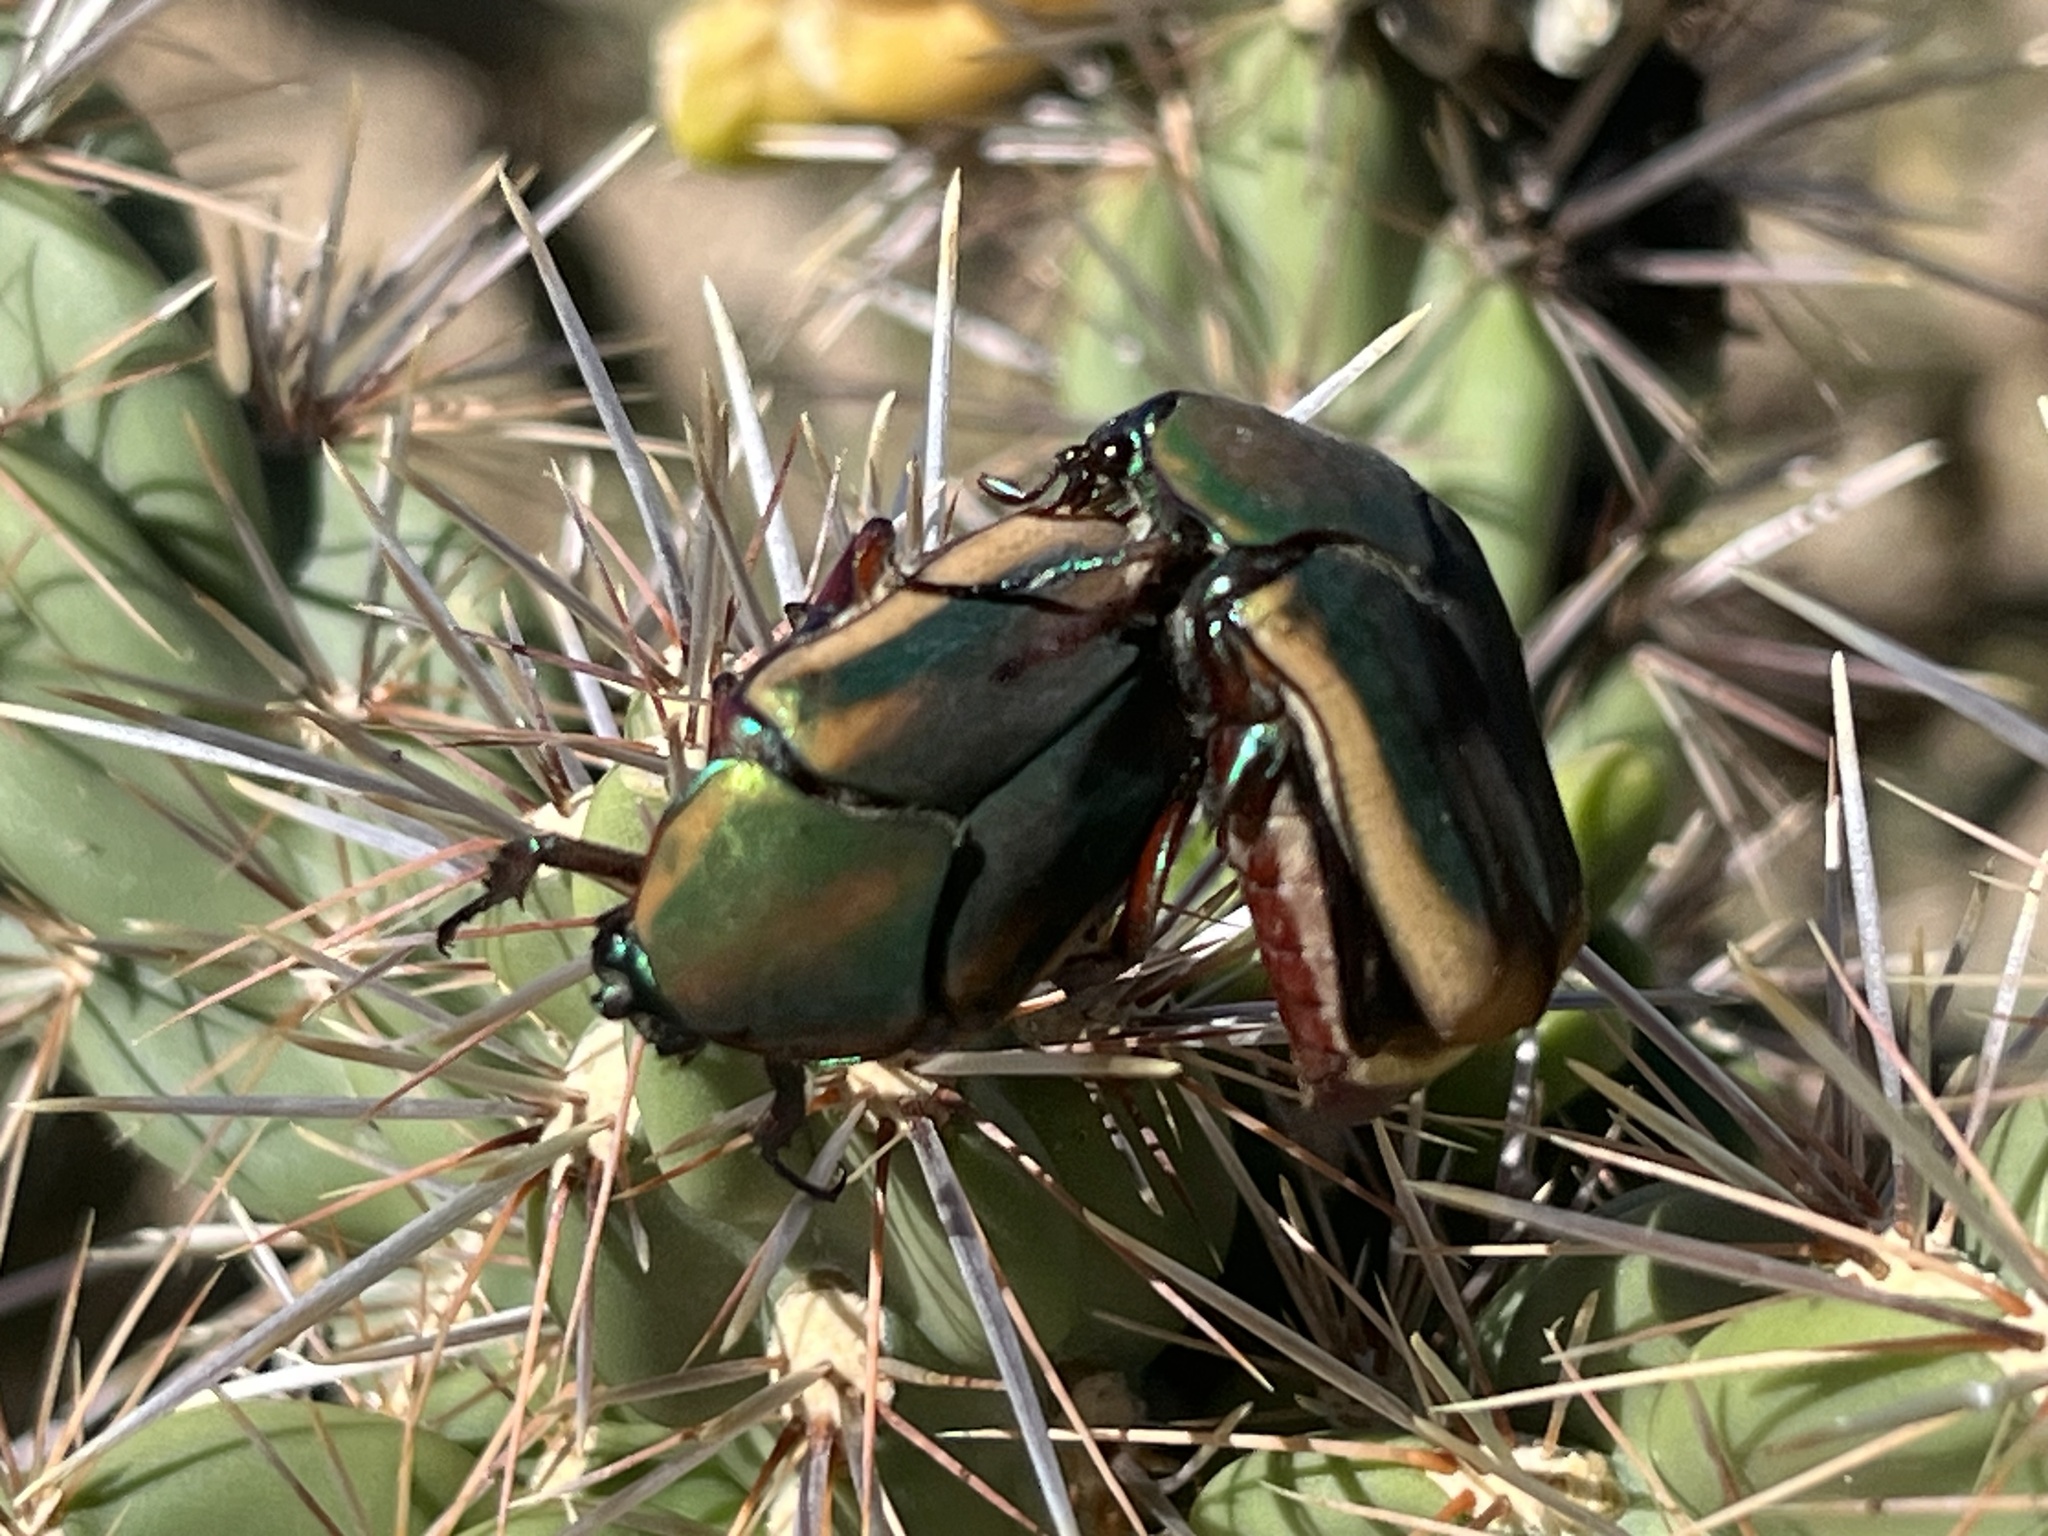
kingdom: Animalia
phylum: Arthropoda
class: Insecta
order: Coleoptera
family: Scarabaeidae
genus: Cotinis
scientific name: Cotinis mutabilis
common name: Figeater beetle
